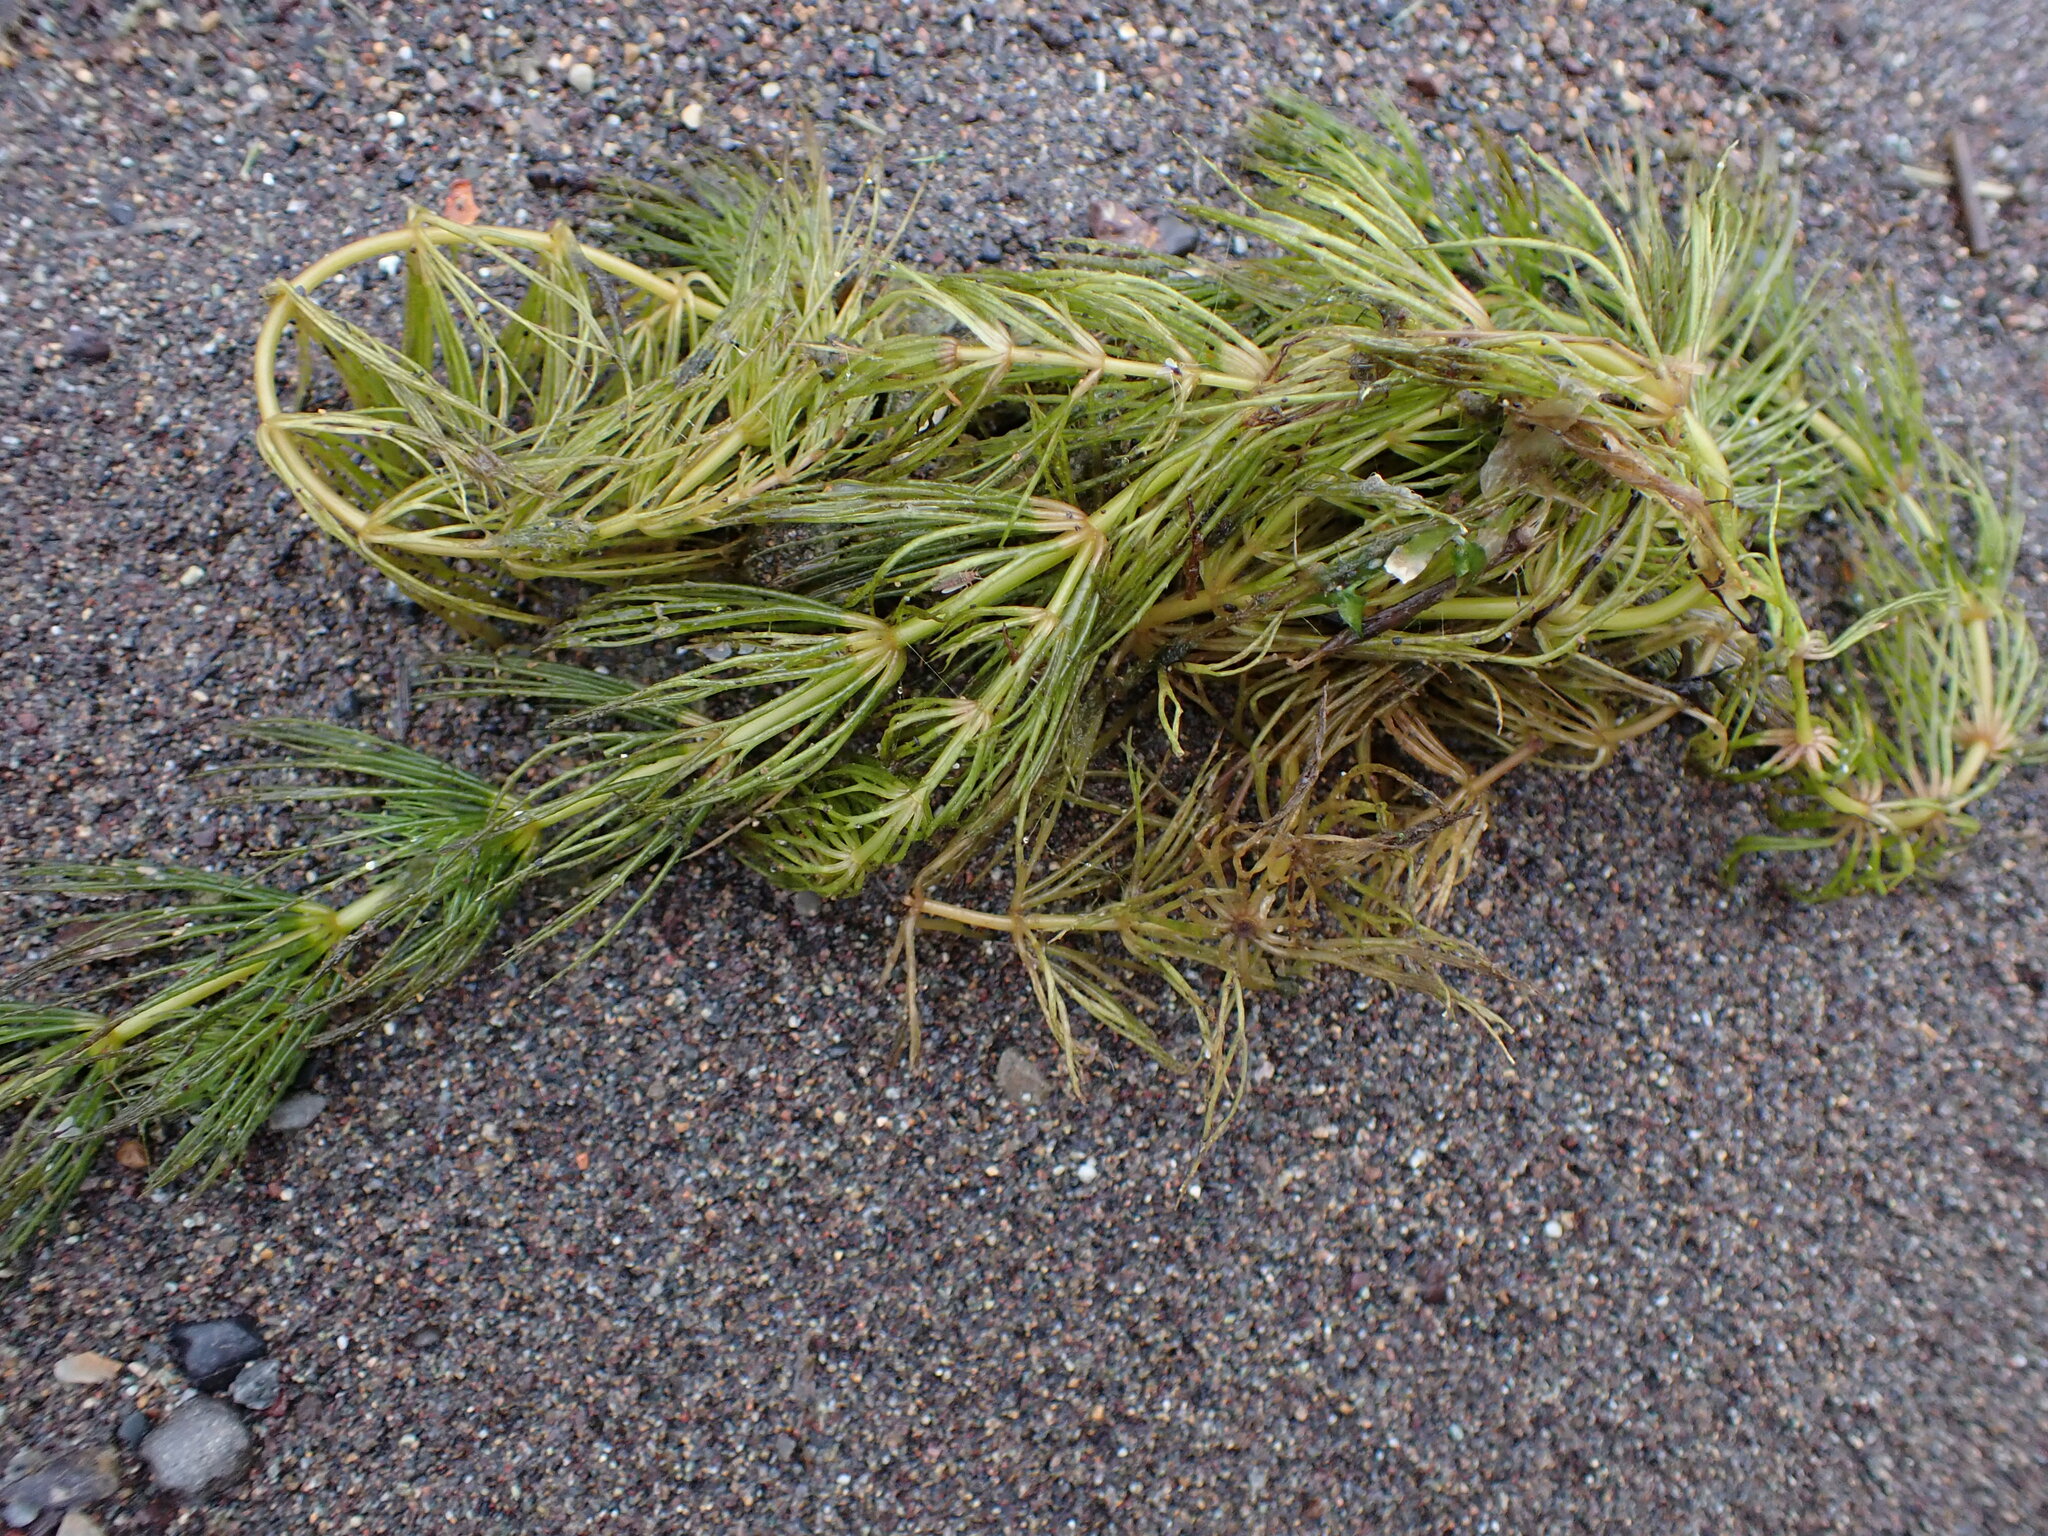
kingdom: Plantae
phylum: Tracheophyta
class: Magnoliopsida
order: Ceratophyllales
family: Ceratophyllaceae
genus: Ceratophyllum
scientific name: Ceratophyllum demersum
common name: Rigid hornwort
